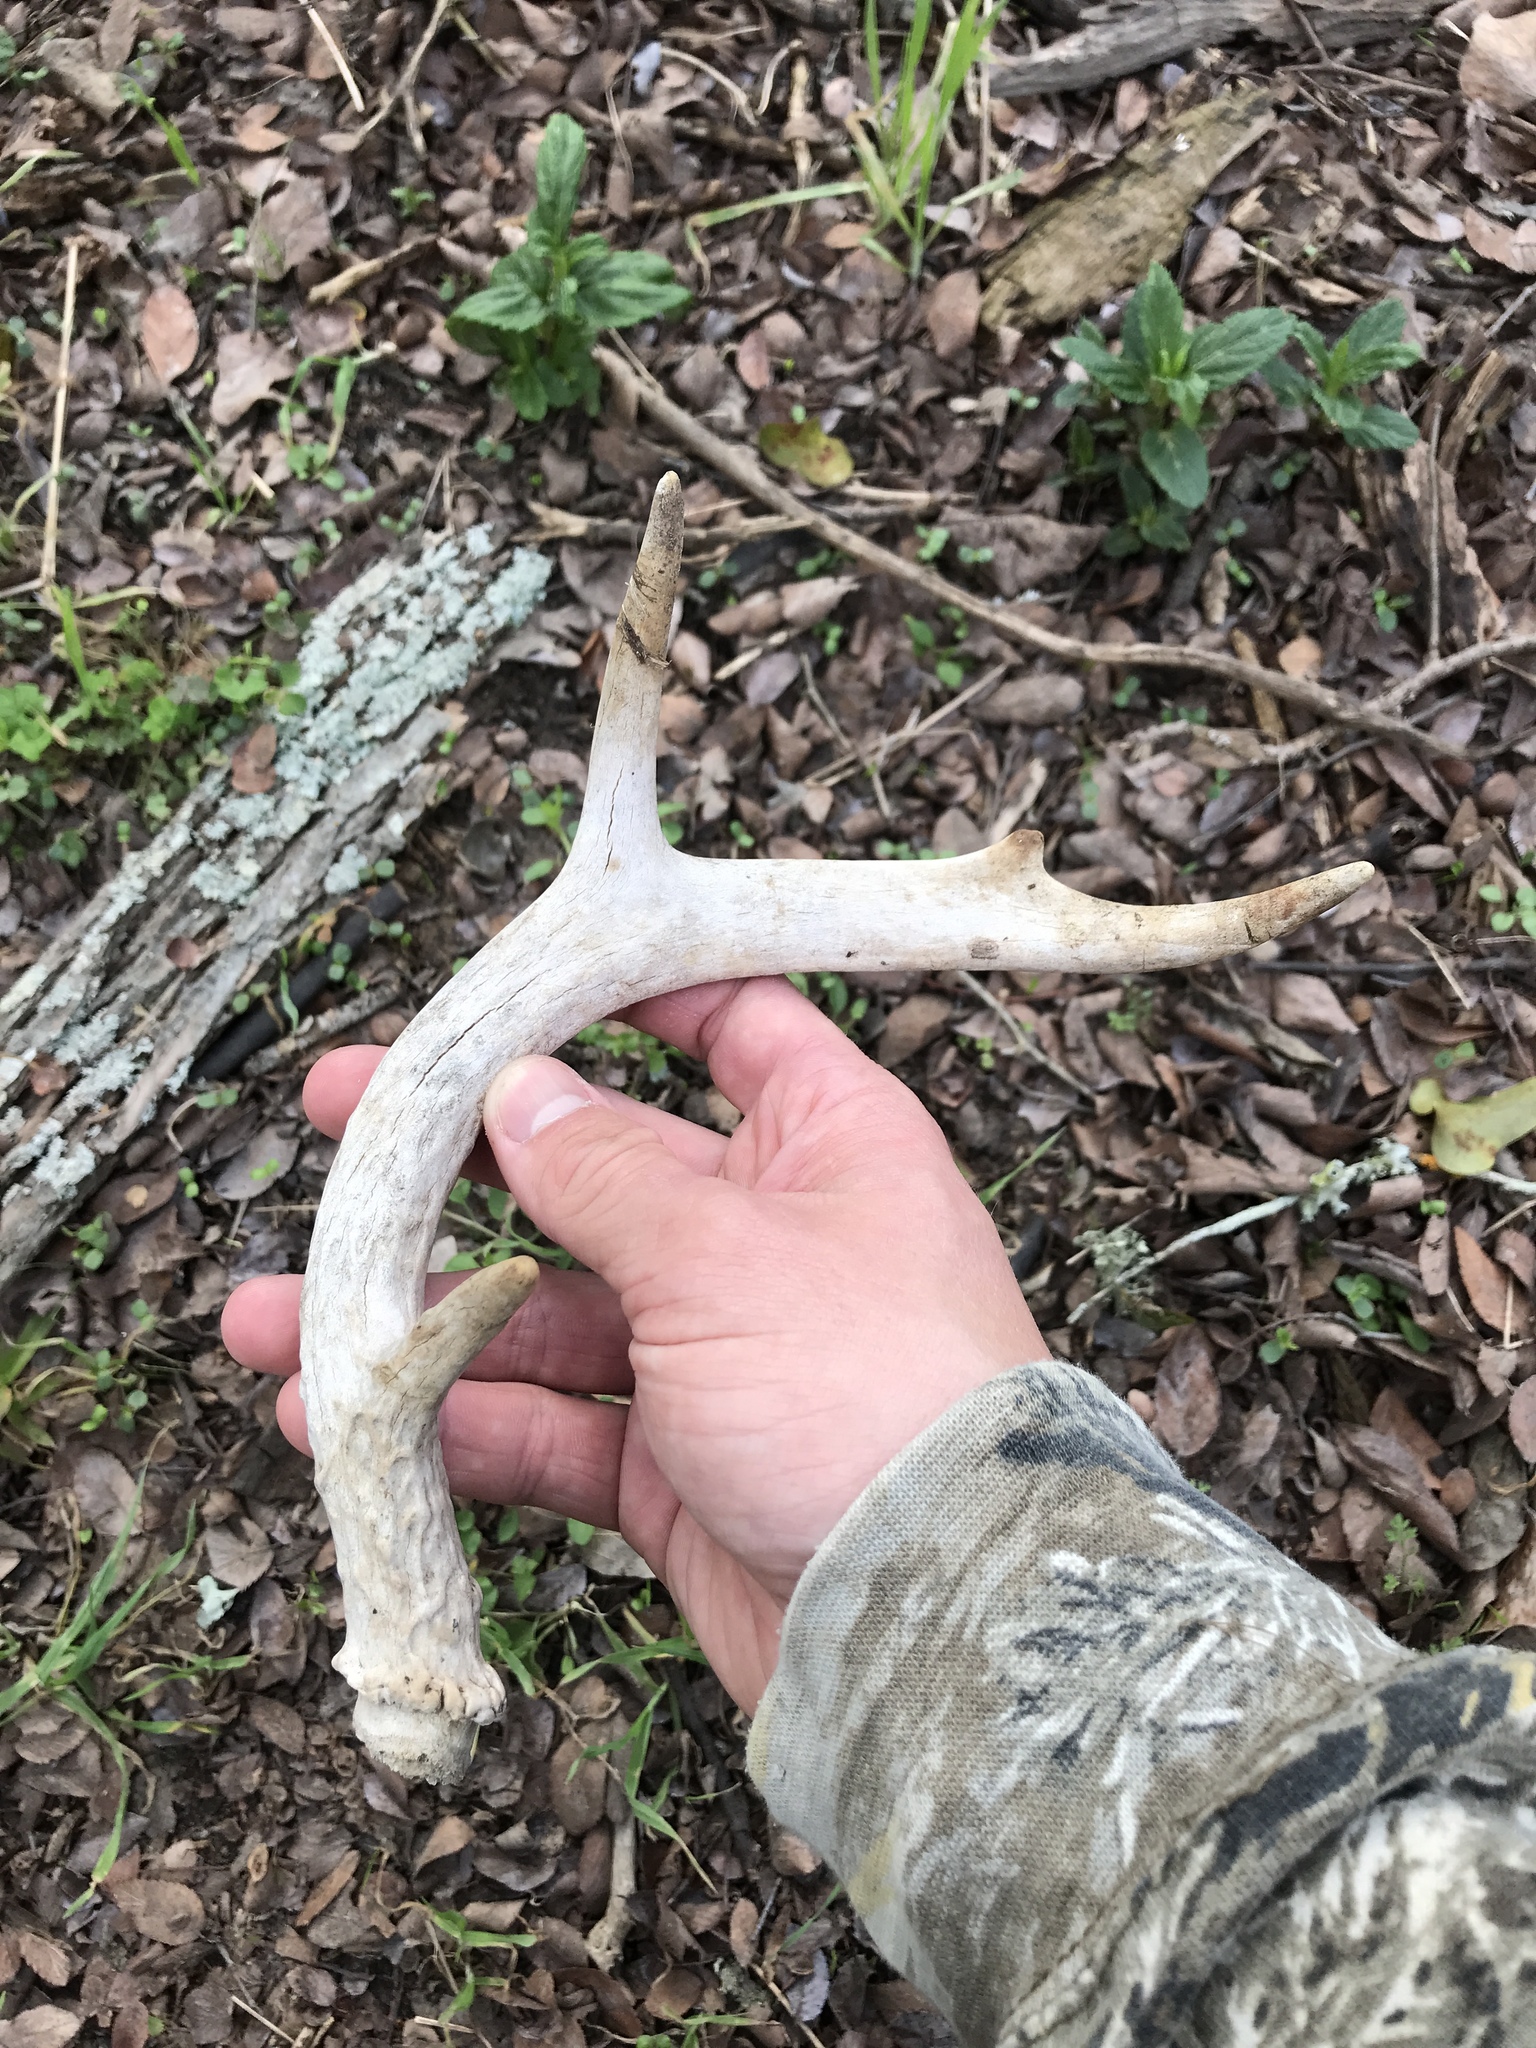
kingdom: Animalia
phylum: Chordata
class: Mammalia
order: Artiodactyla
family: Cervidae
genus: Odocoileus
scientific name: Odocoileus virginianus
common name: White-tailed deer
